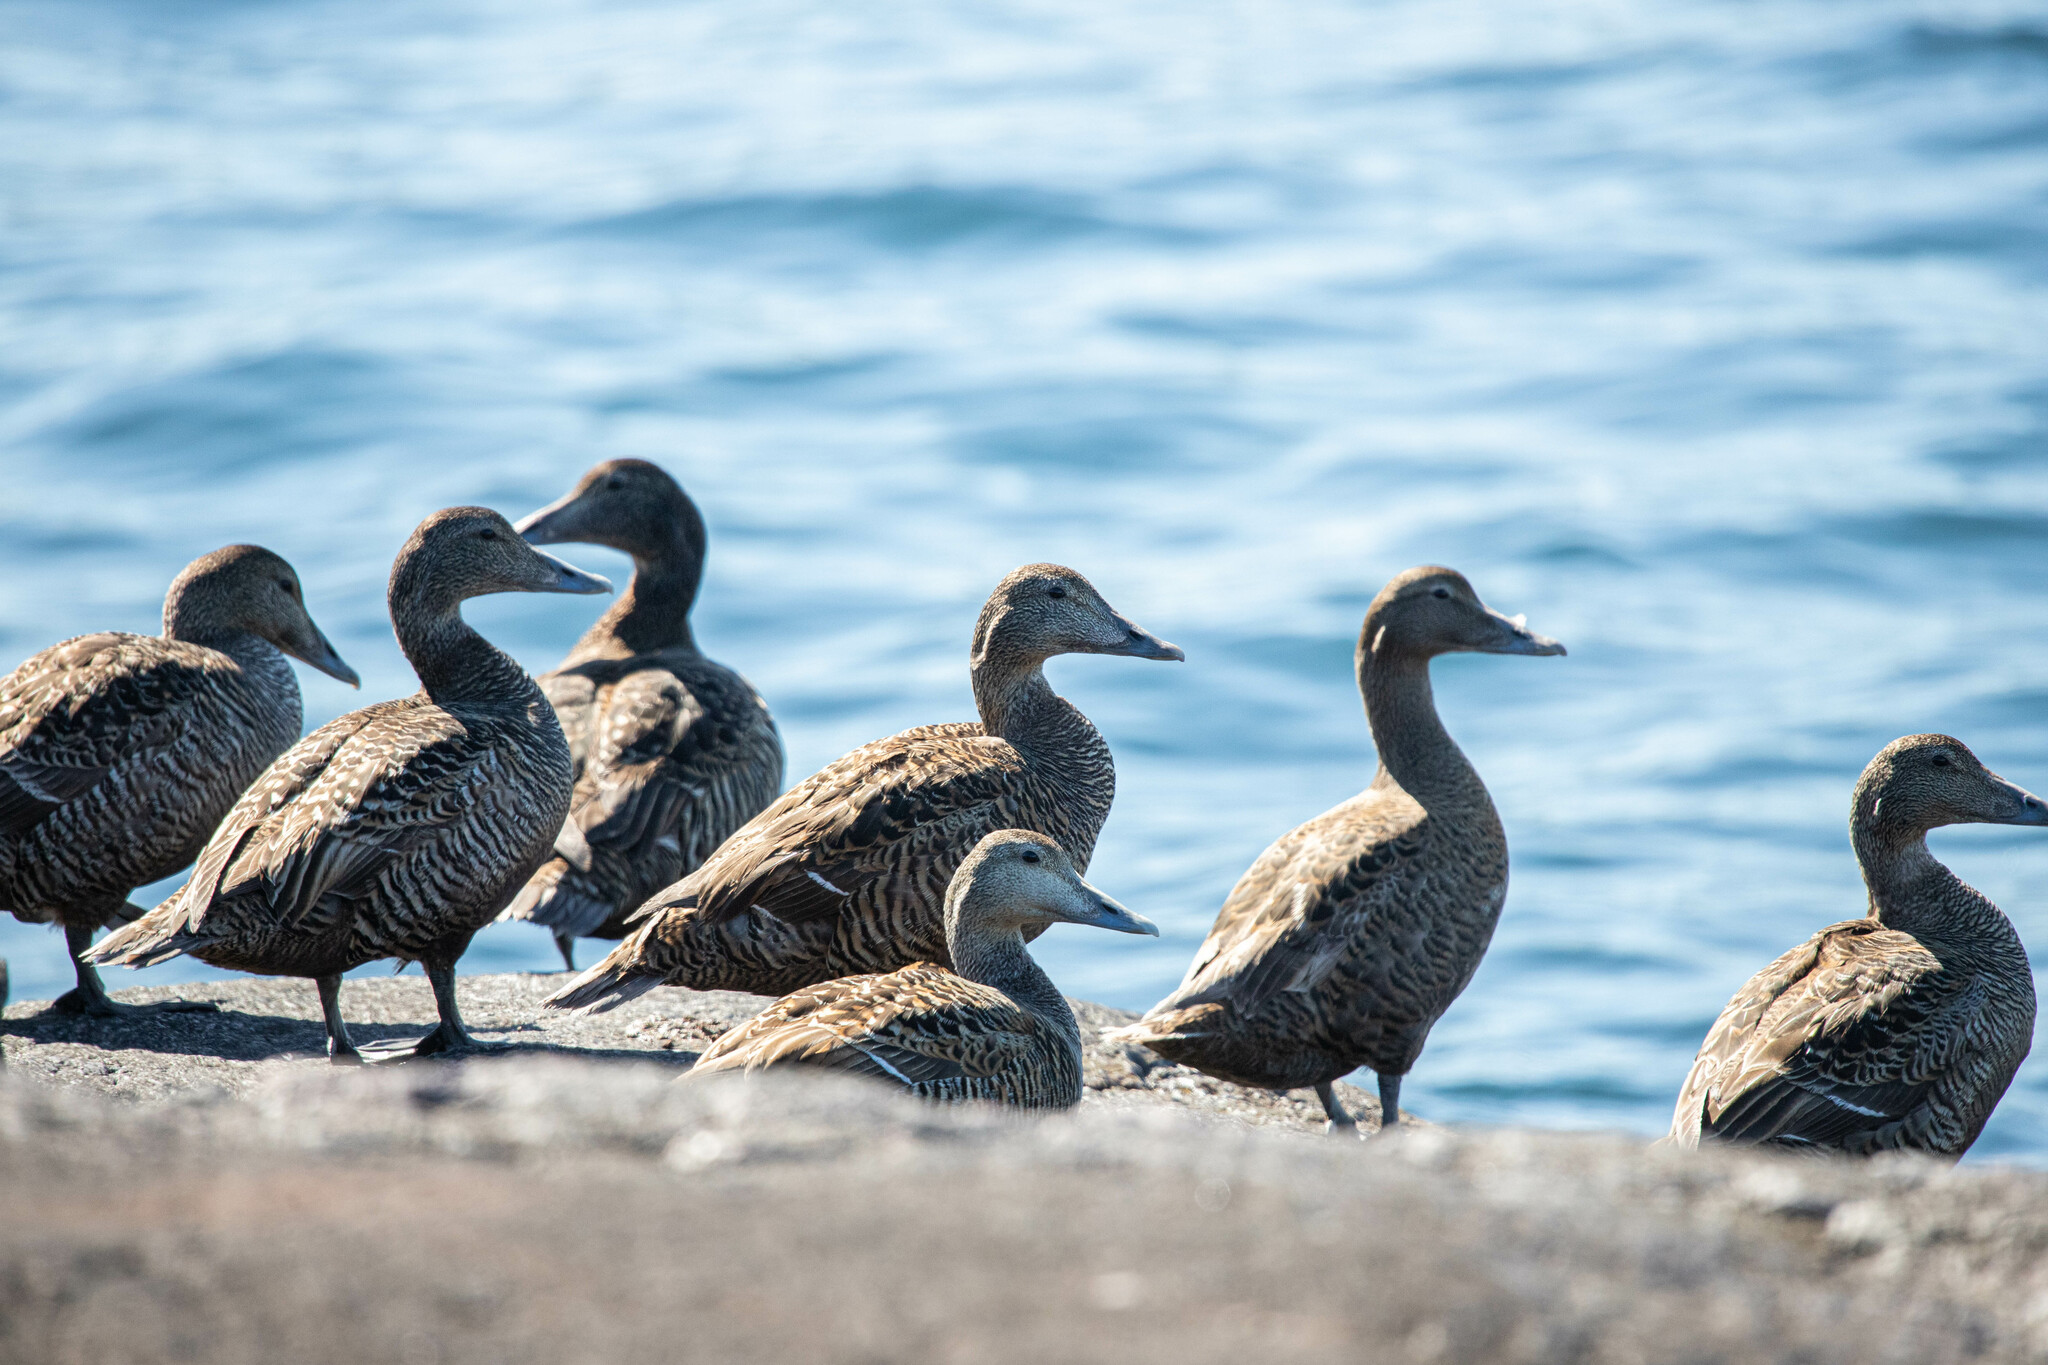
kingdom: Animalia
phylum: Chordata
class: Aves
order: Anseriformes
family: Anatidae
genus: Somateria
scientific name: Somateria mollissima
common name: Common eider
